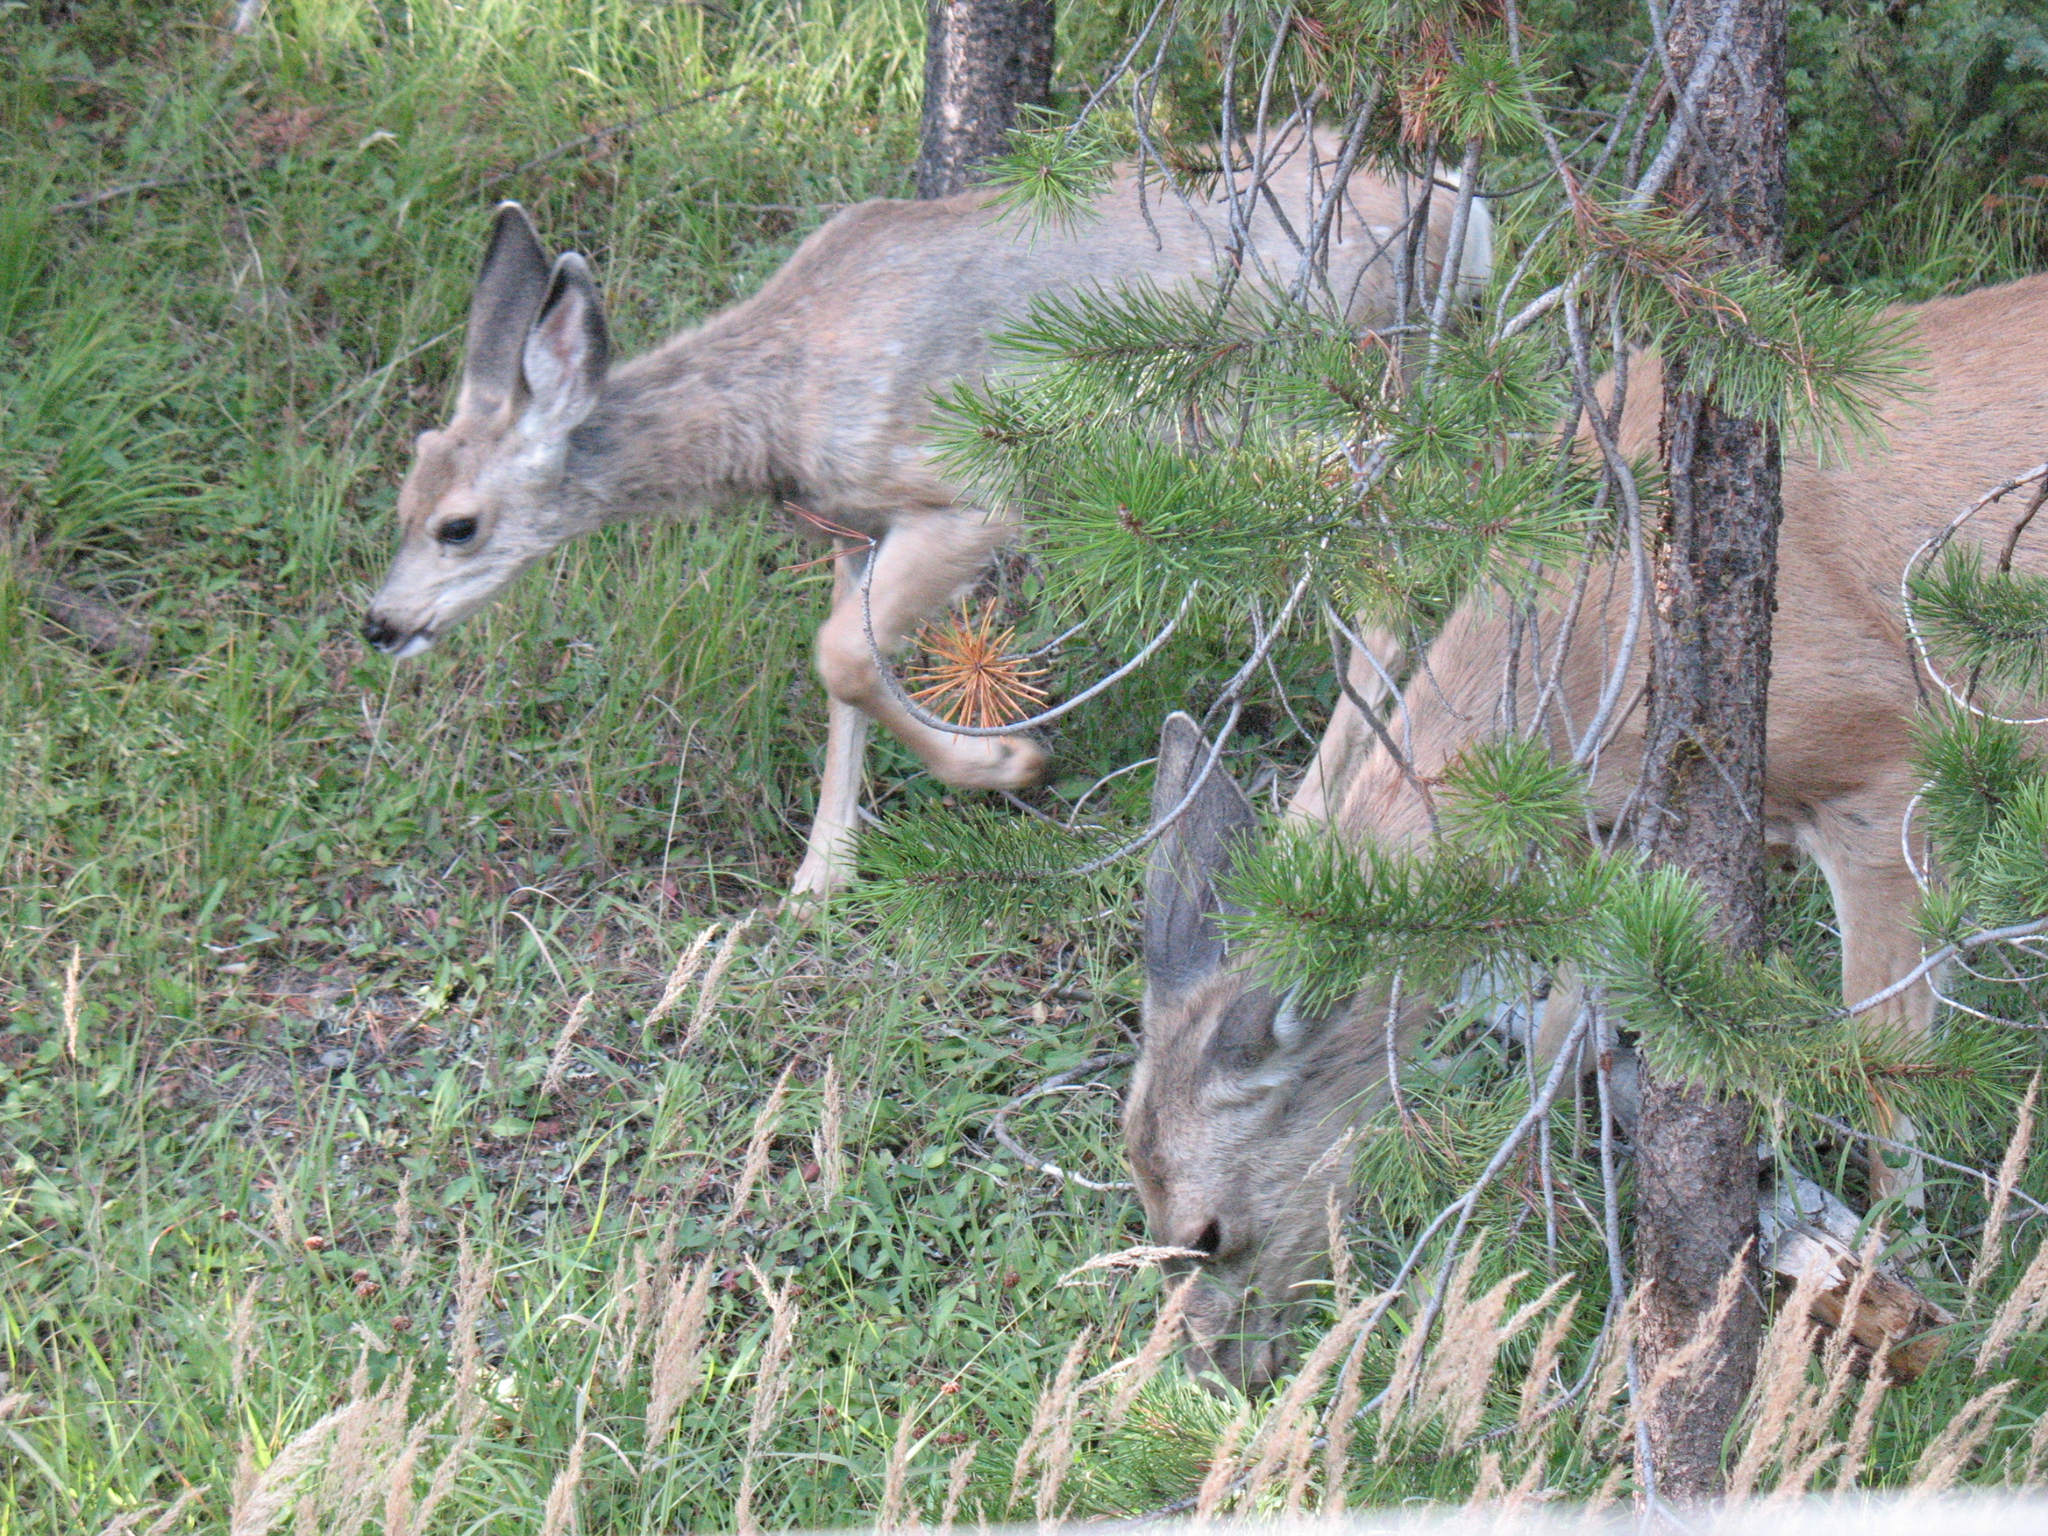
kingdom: Animalia
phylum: Chordata
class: Mammalia
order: Artiodactyla
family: Cervidae
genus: Odocoileus
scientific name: Odocoileus hemionus
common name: Mule deer
